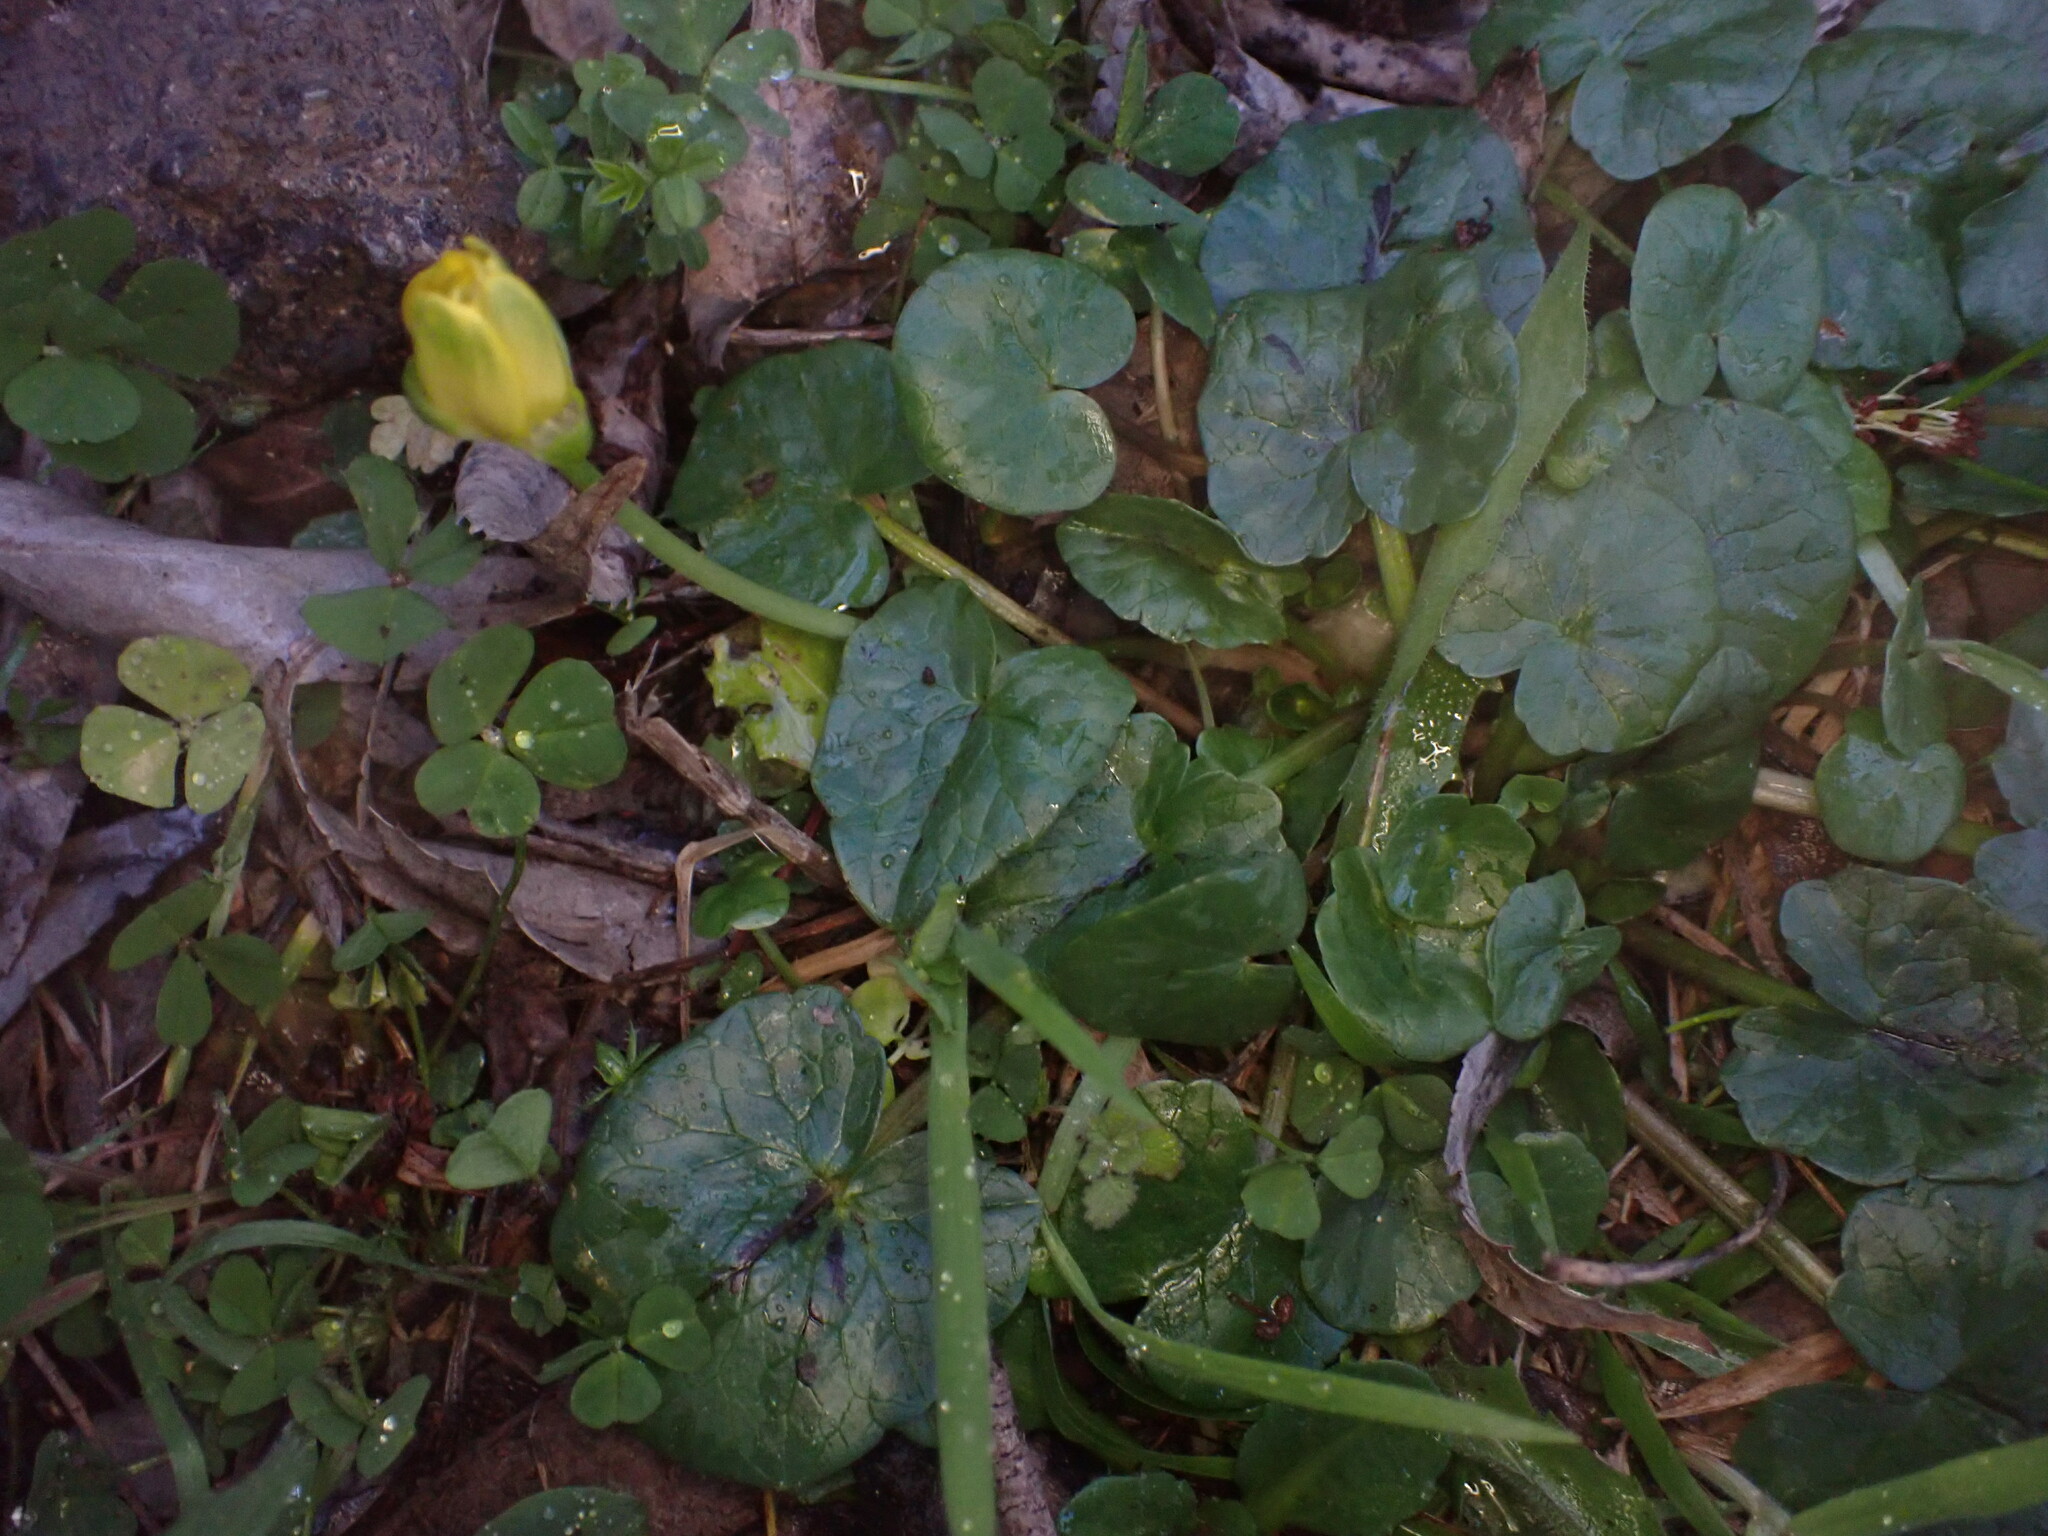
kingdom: Plantae
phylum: Tracheophyta
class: Magnoliopsida
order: Ranunculales
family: Ranunculaceae
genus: Ficaria
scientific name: Ficaria verna
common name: Lesser celandine
